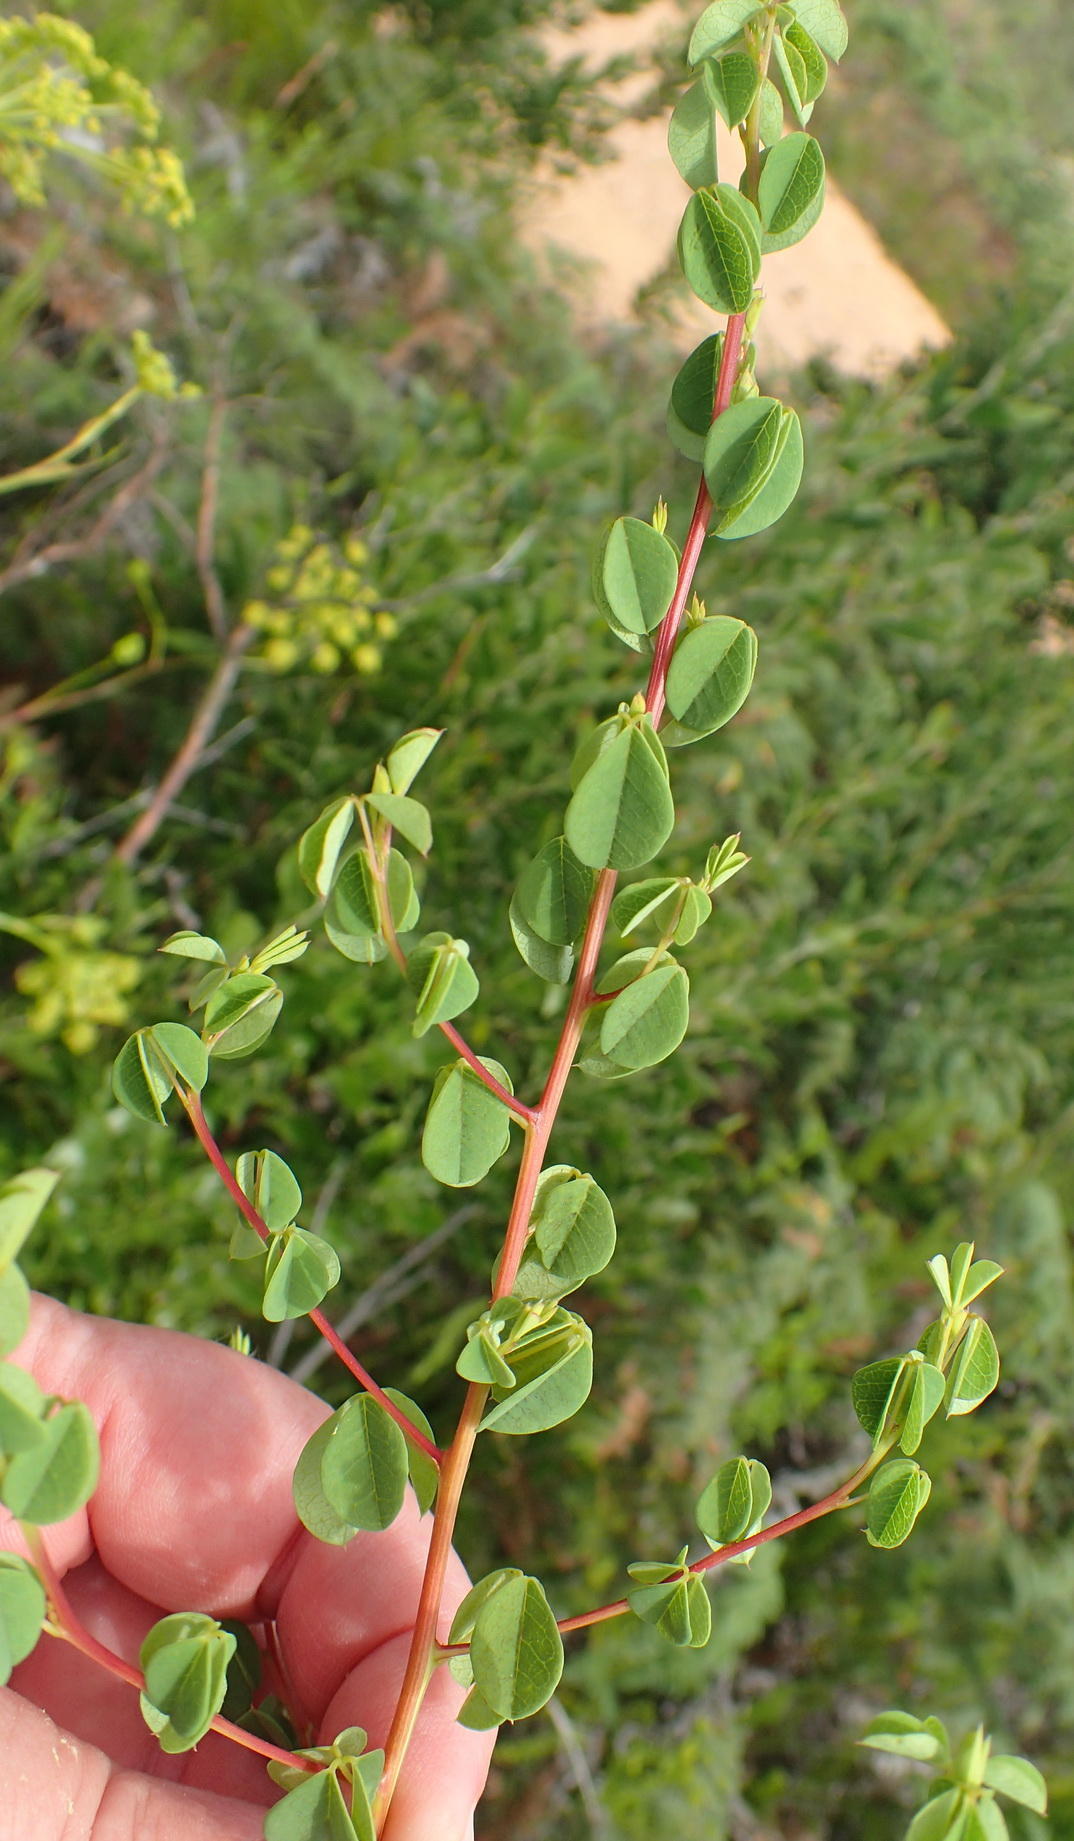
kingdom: Plantae
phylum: Tracheophyta
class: Magnoliopsida
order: Fabales
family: Fabaceae
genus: Hypocalyptus
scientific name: Hypocalyptus oxalidifolius
